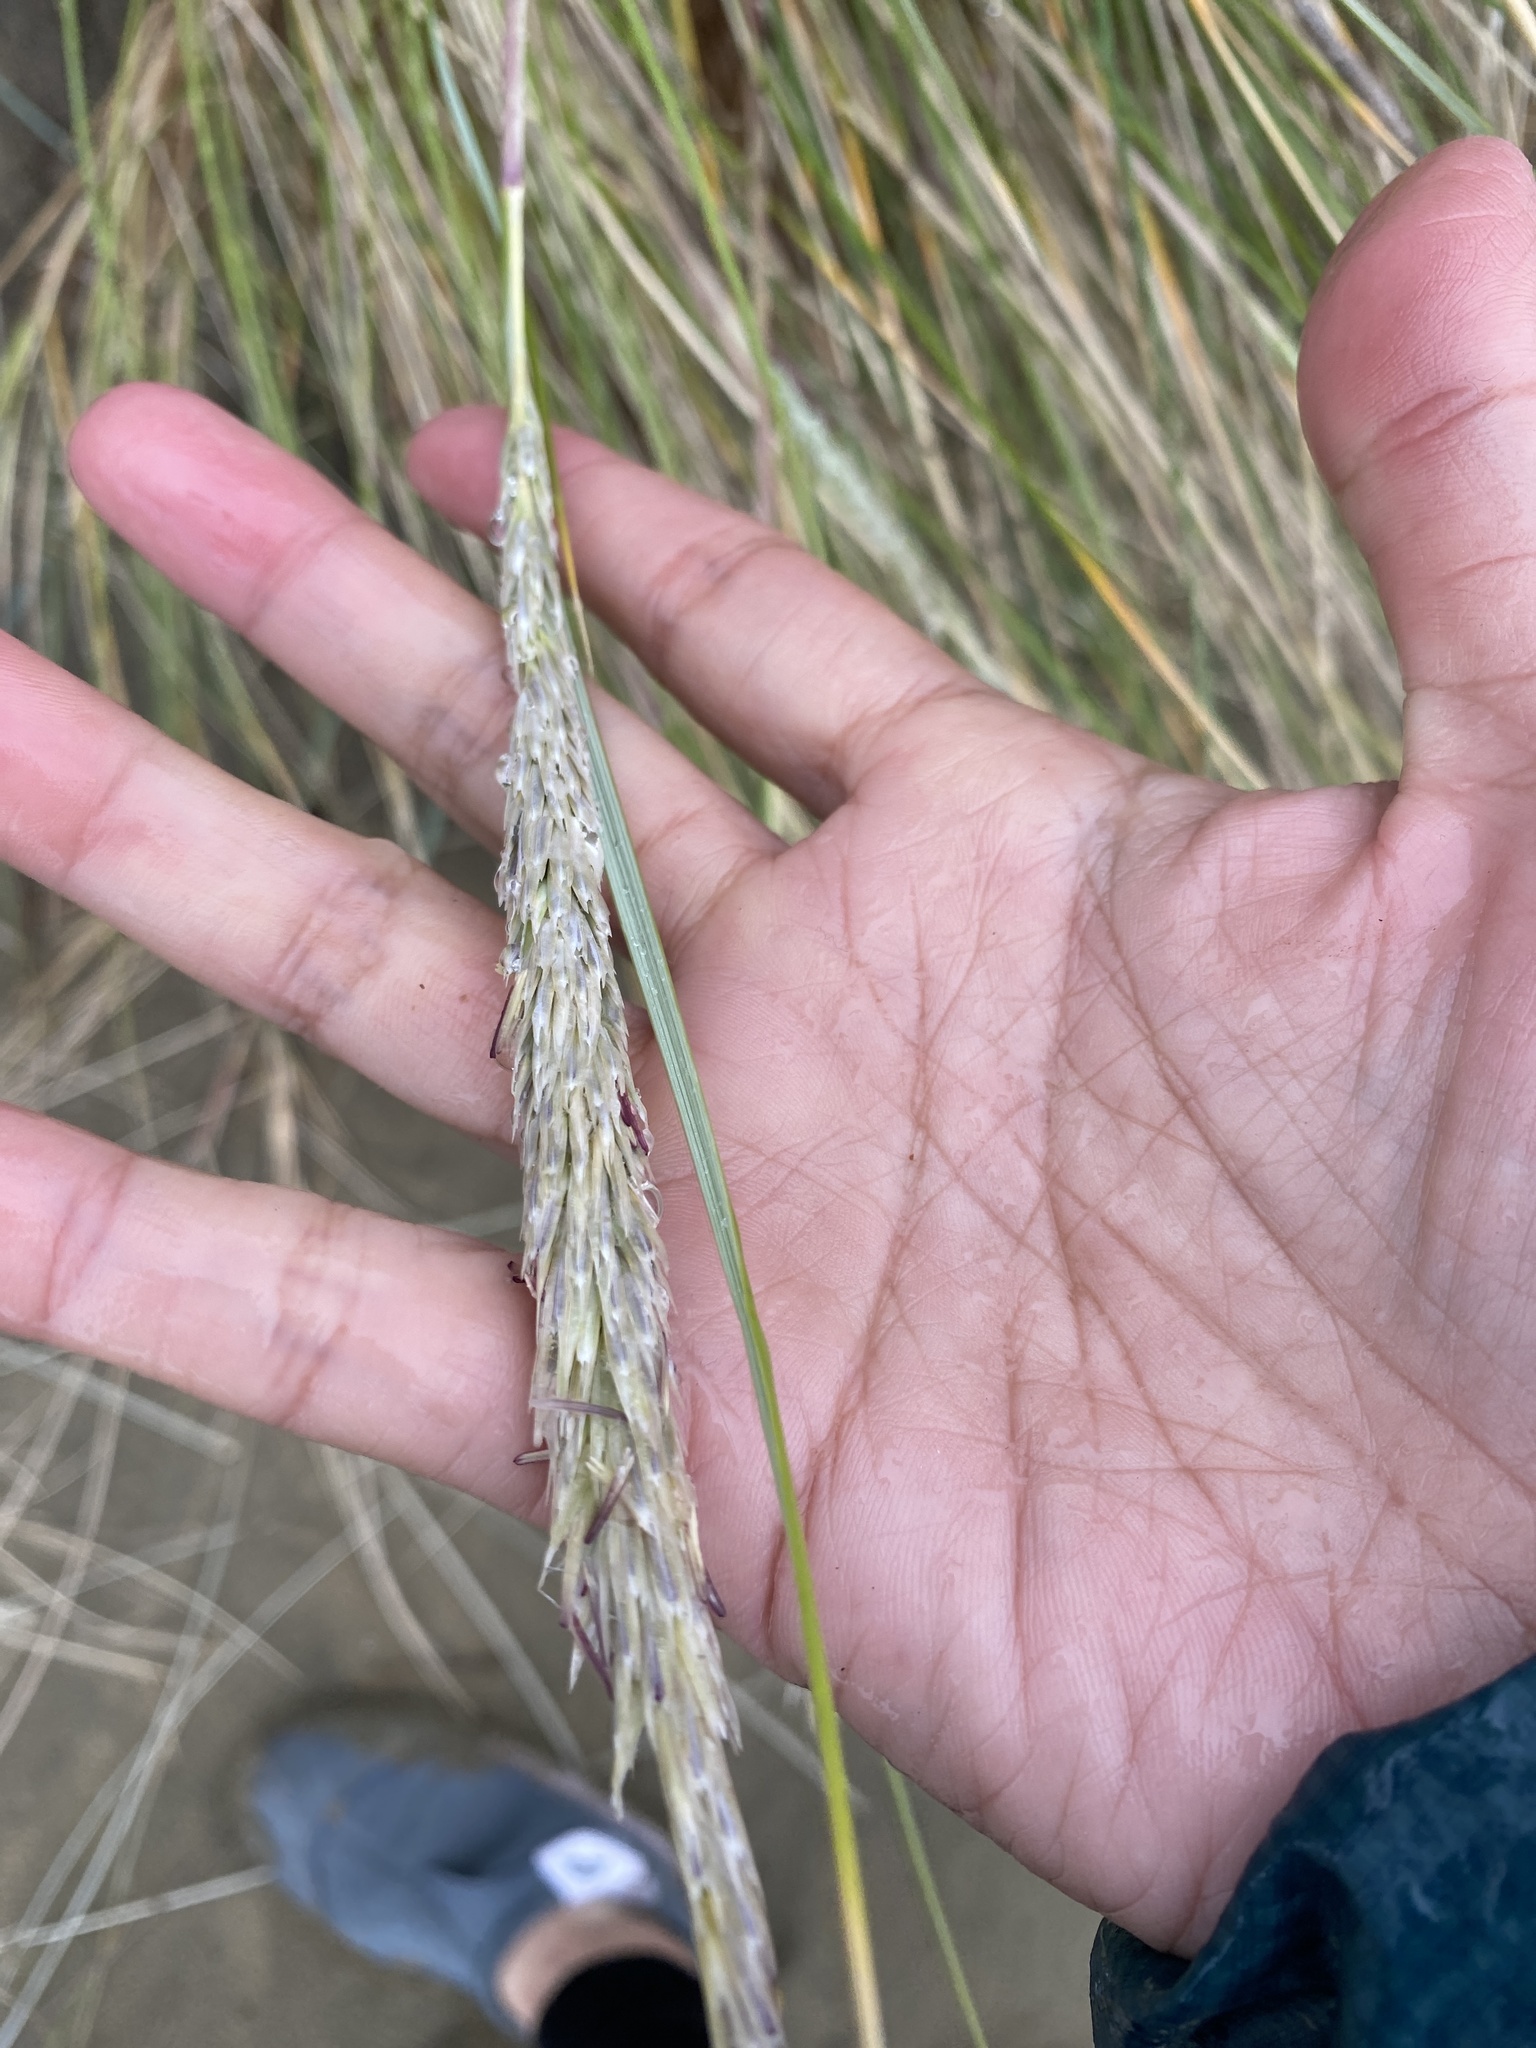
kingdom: Plantae
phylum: Tracheophyta
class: Liliopsida
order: Poales
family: Poaceae
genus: Calamagrostis
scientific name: Calamagrostis arenaria
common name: European beachgrass
